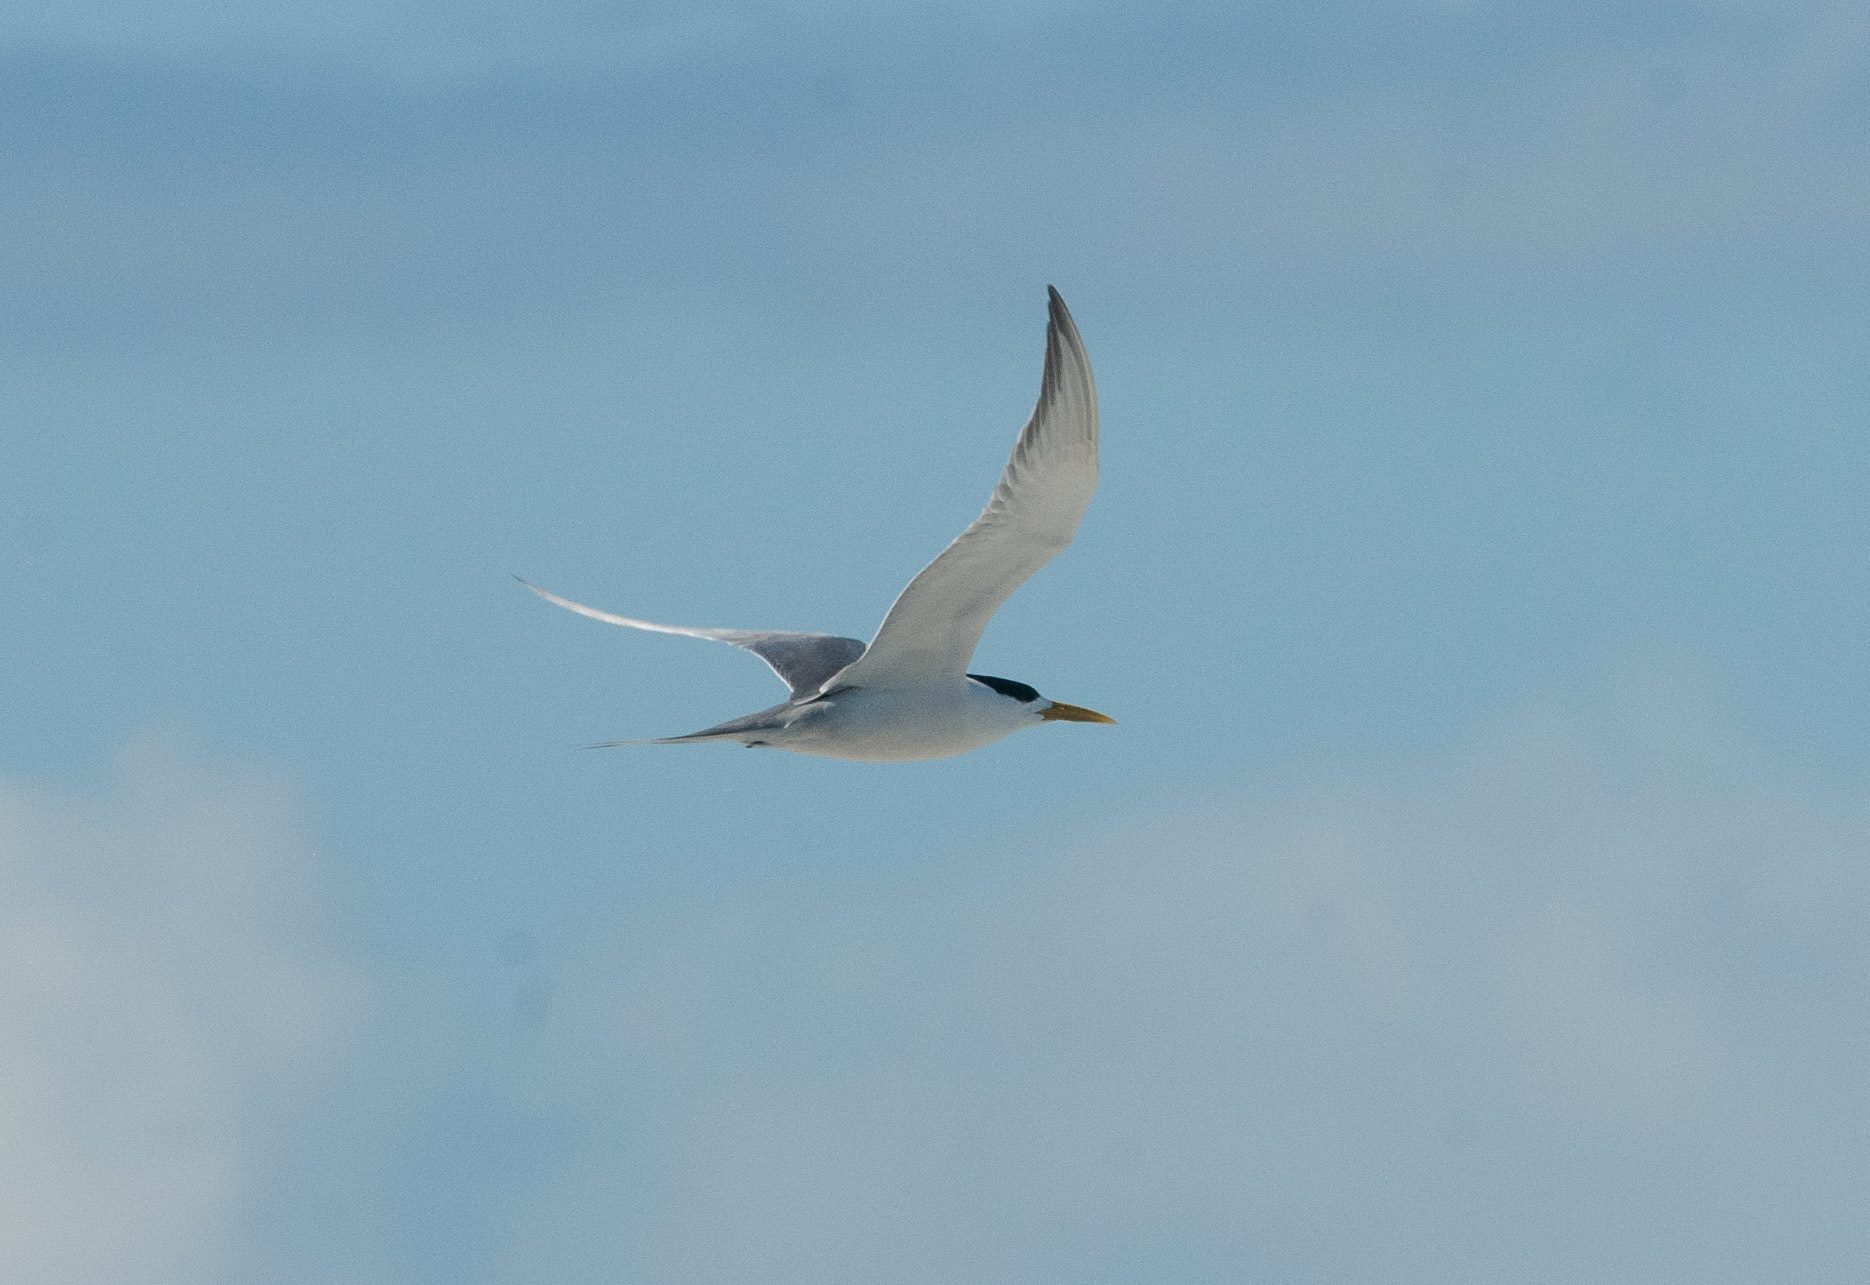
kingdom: Animalia
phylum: Chordata
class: Aves
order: Charadriiformes
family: Laridae
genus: Thalasseus
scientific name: Thalasseus bergii
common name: Greater crested tern
